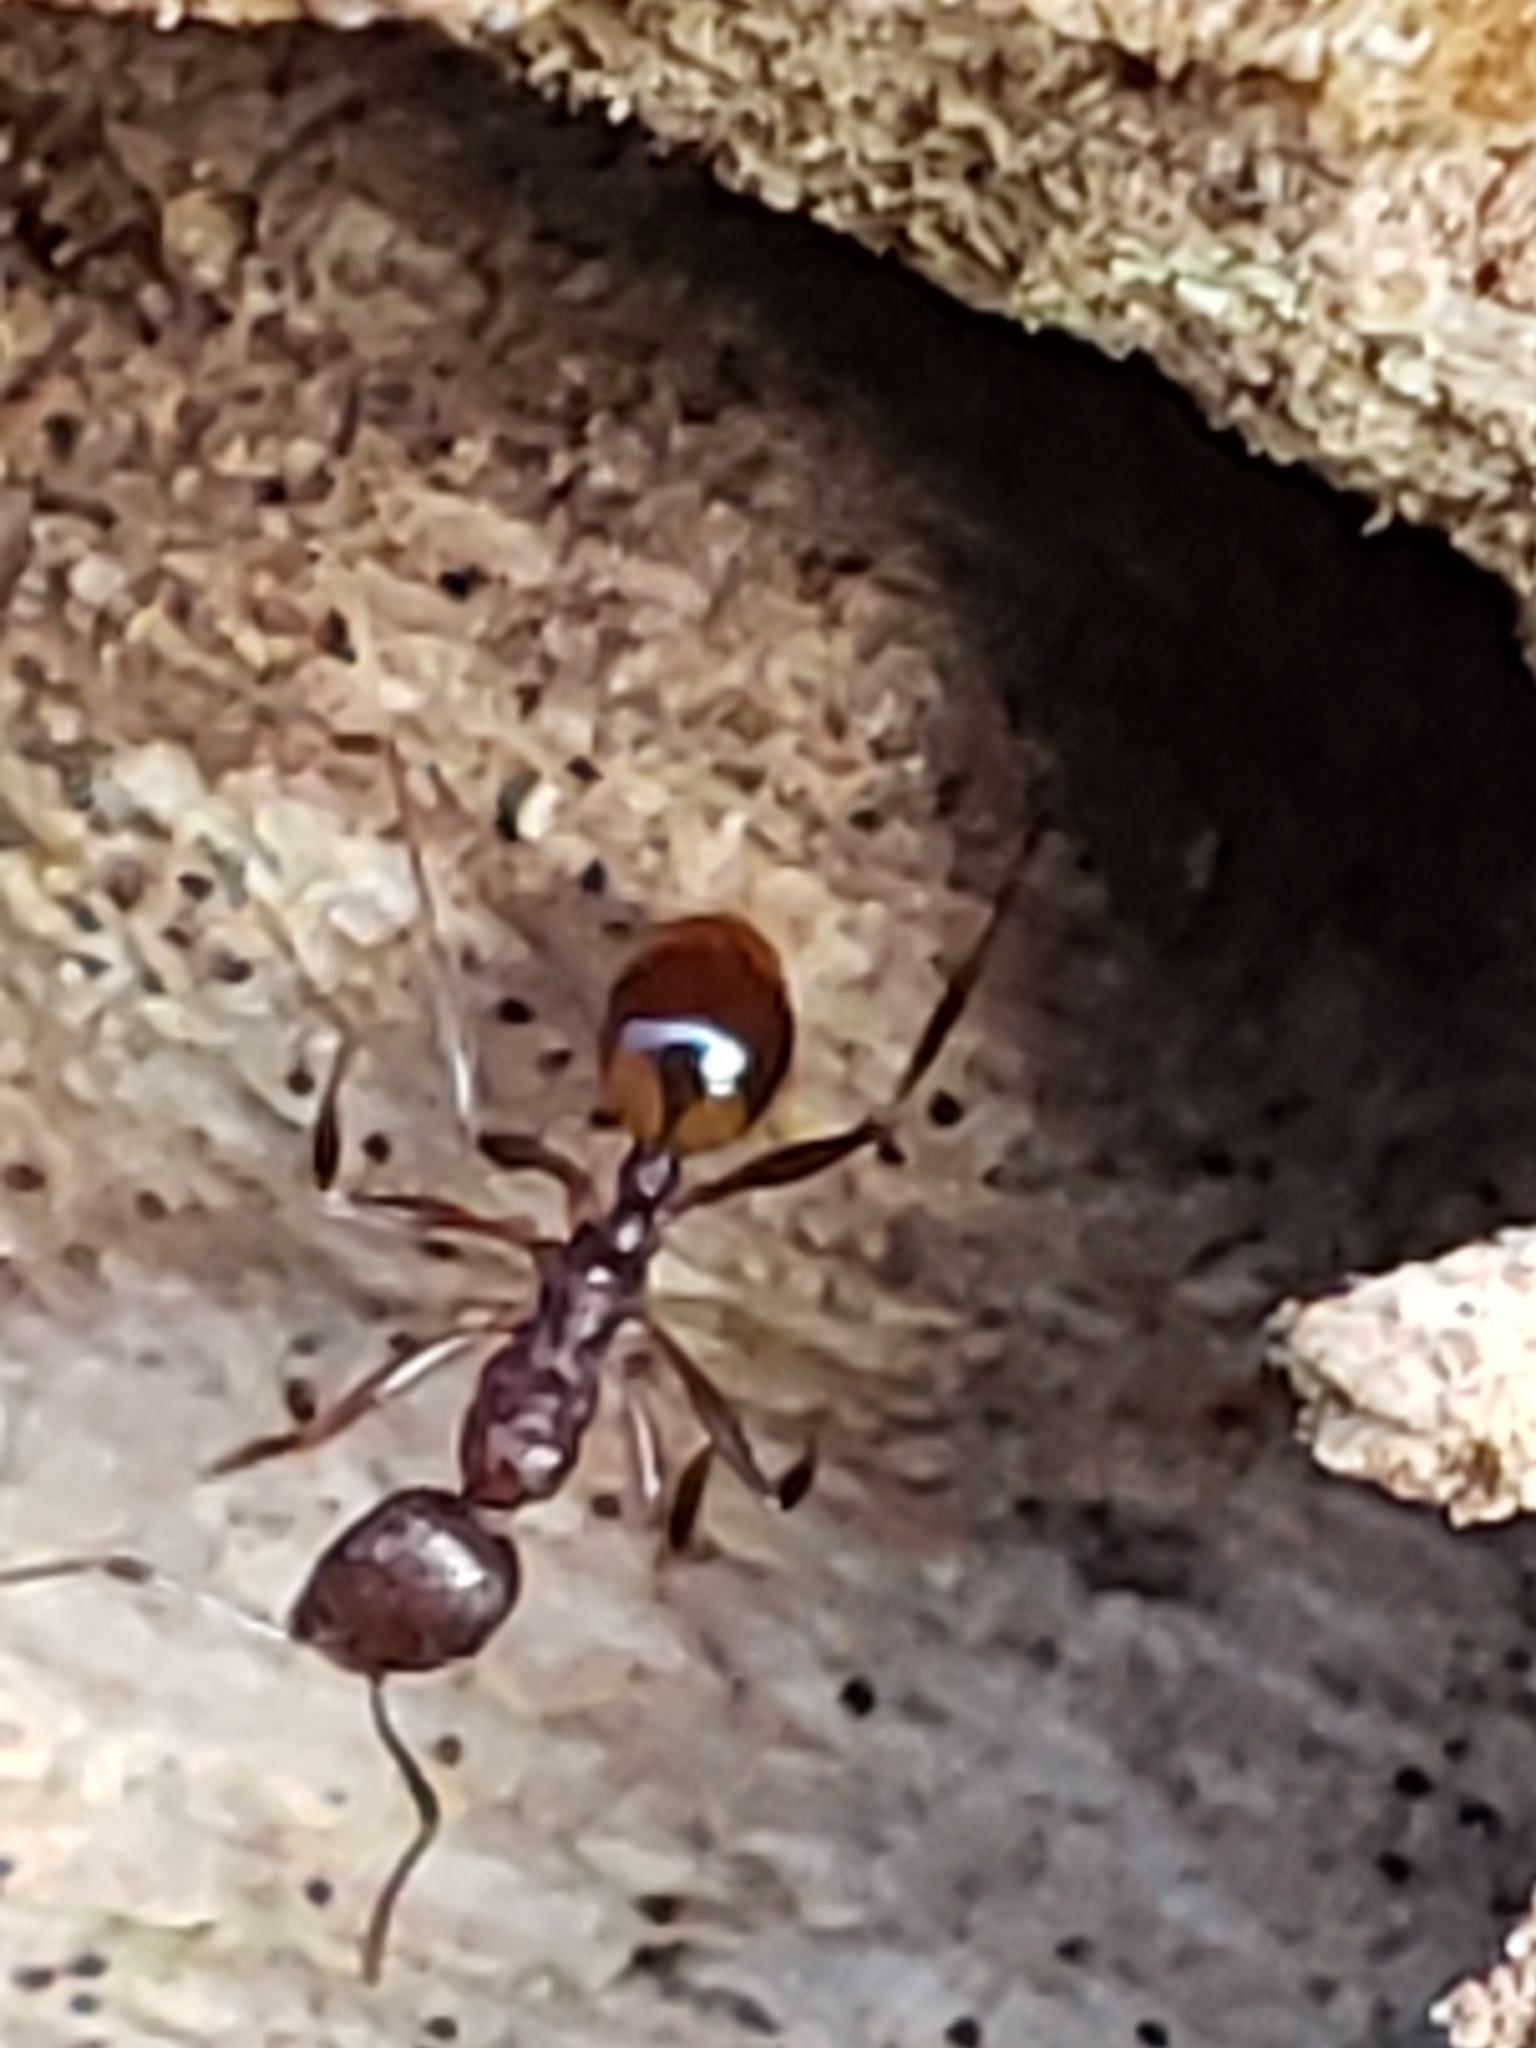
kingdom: Animalia
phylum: Arthropoda
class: Insecta
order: Hymenoptera
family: Formicidae
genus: Aphaenogaster
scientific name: Aphaenogaster tennesseensis
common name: Tennessee thread-waisted ant
